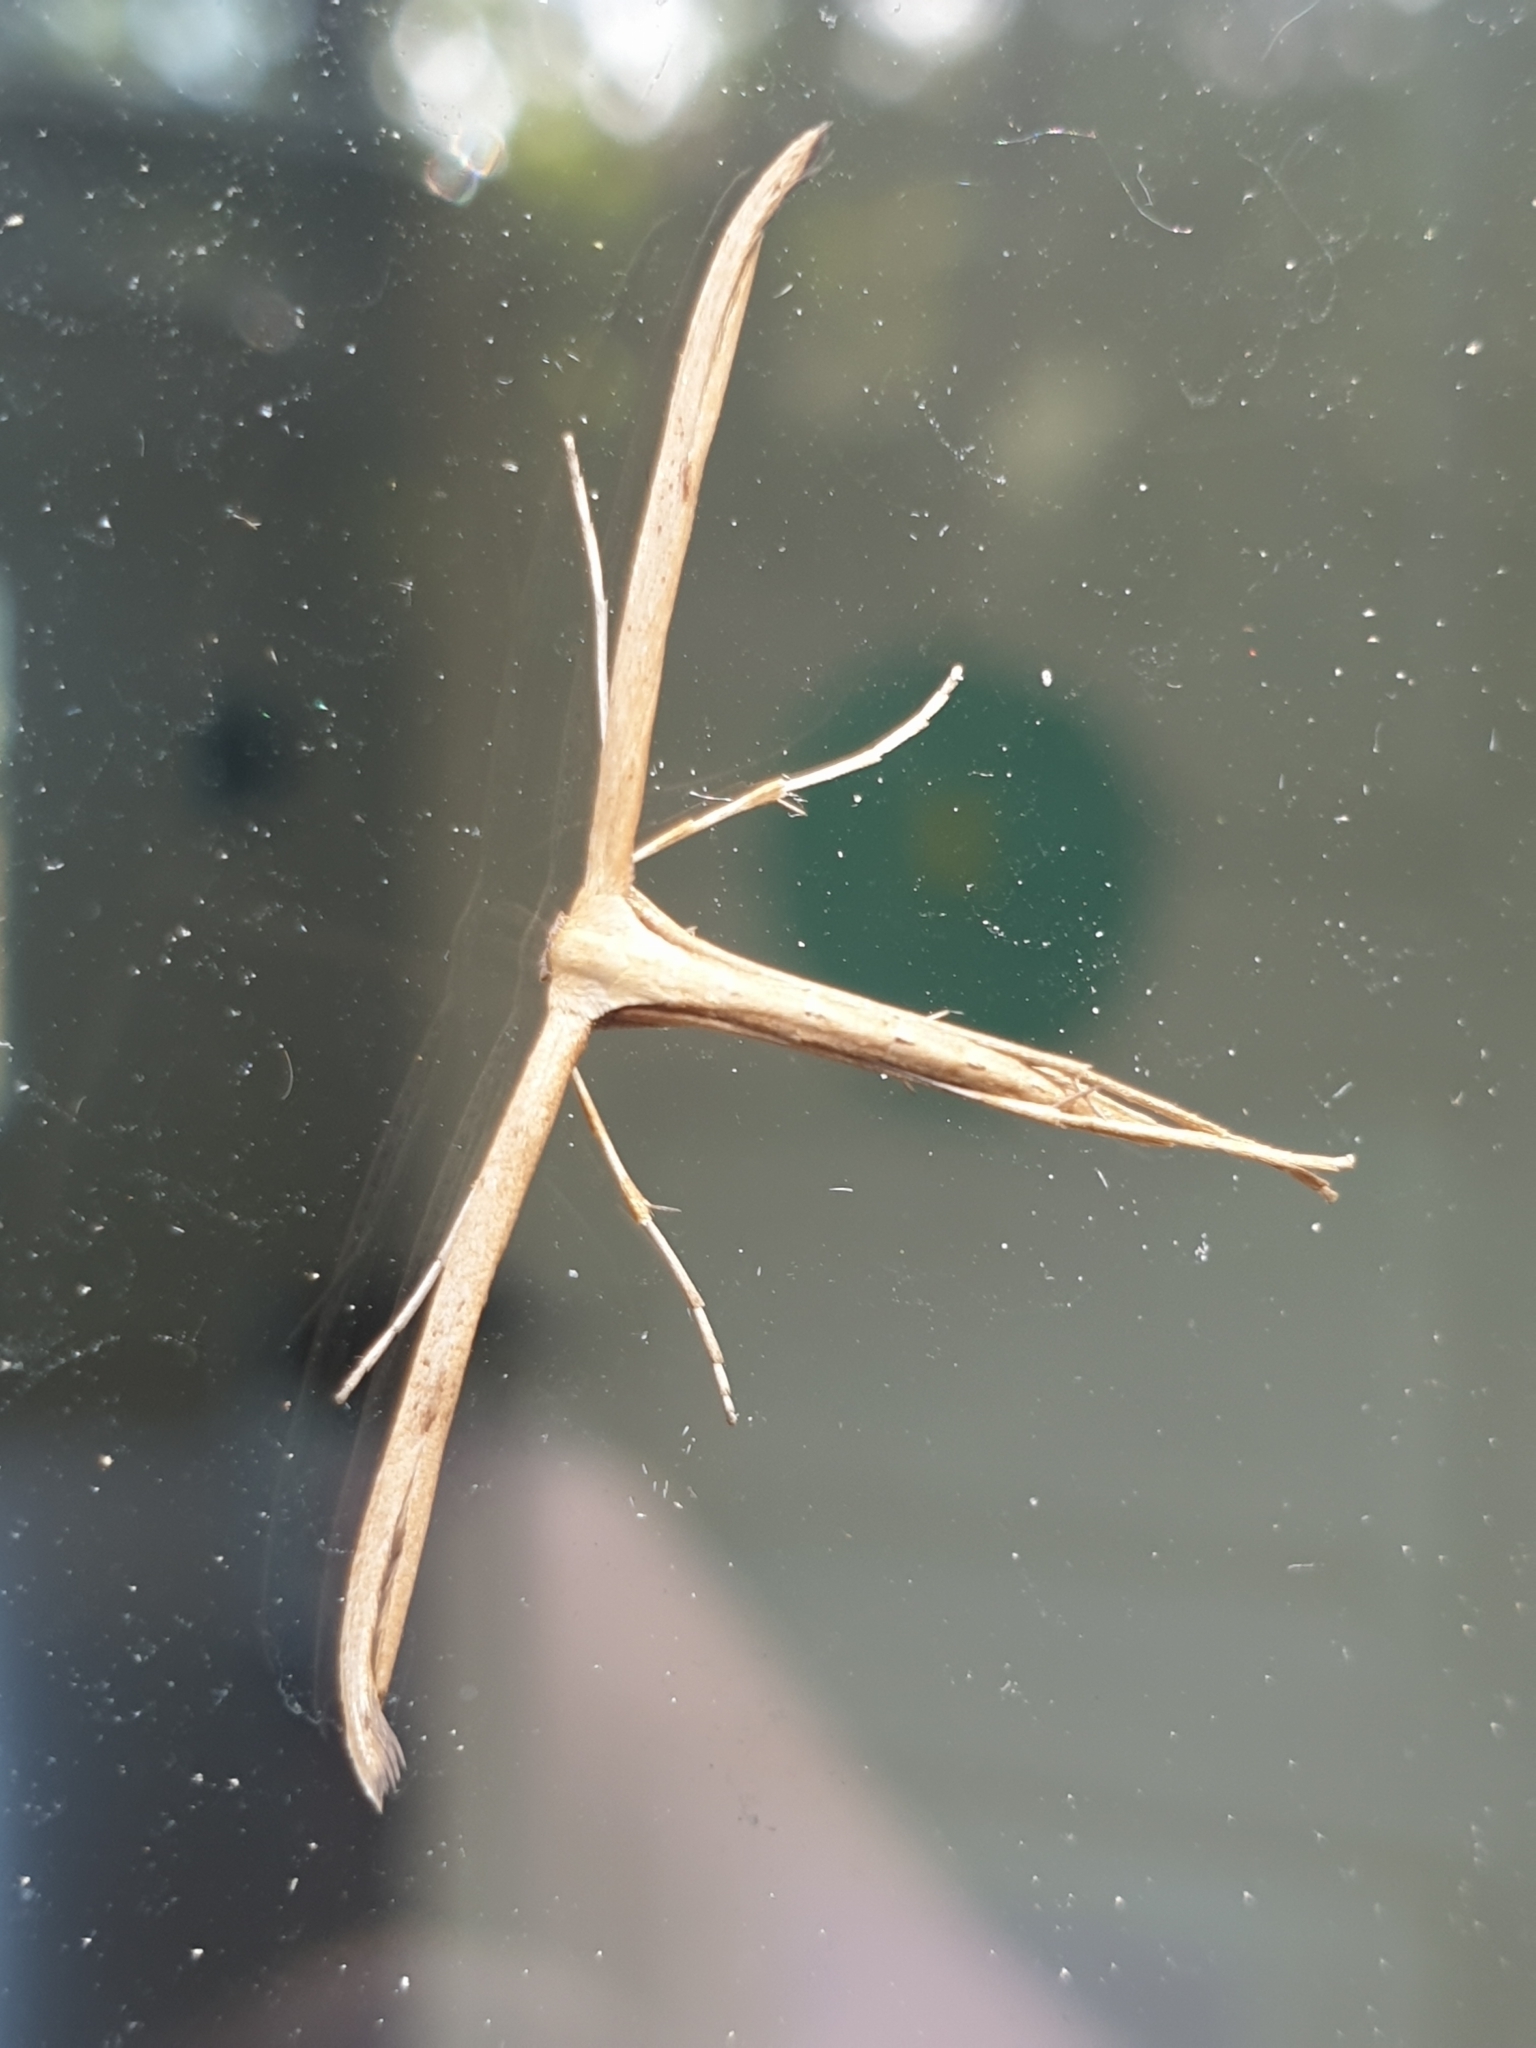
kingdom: Animalia
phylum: Arthropoda
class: Insecta
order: Lepidoptera
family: Pterophoridae
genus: Emmelina
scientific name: Emmelina monodactyla
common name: Common plume
